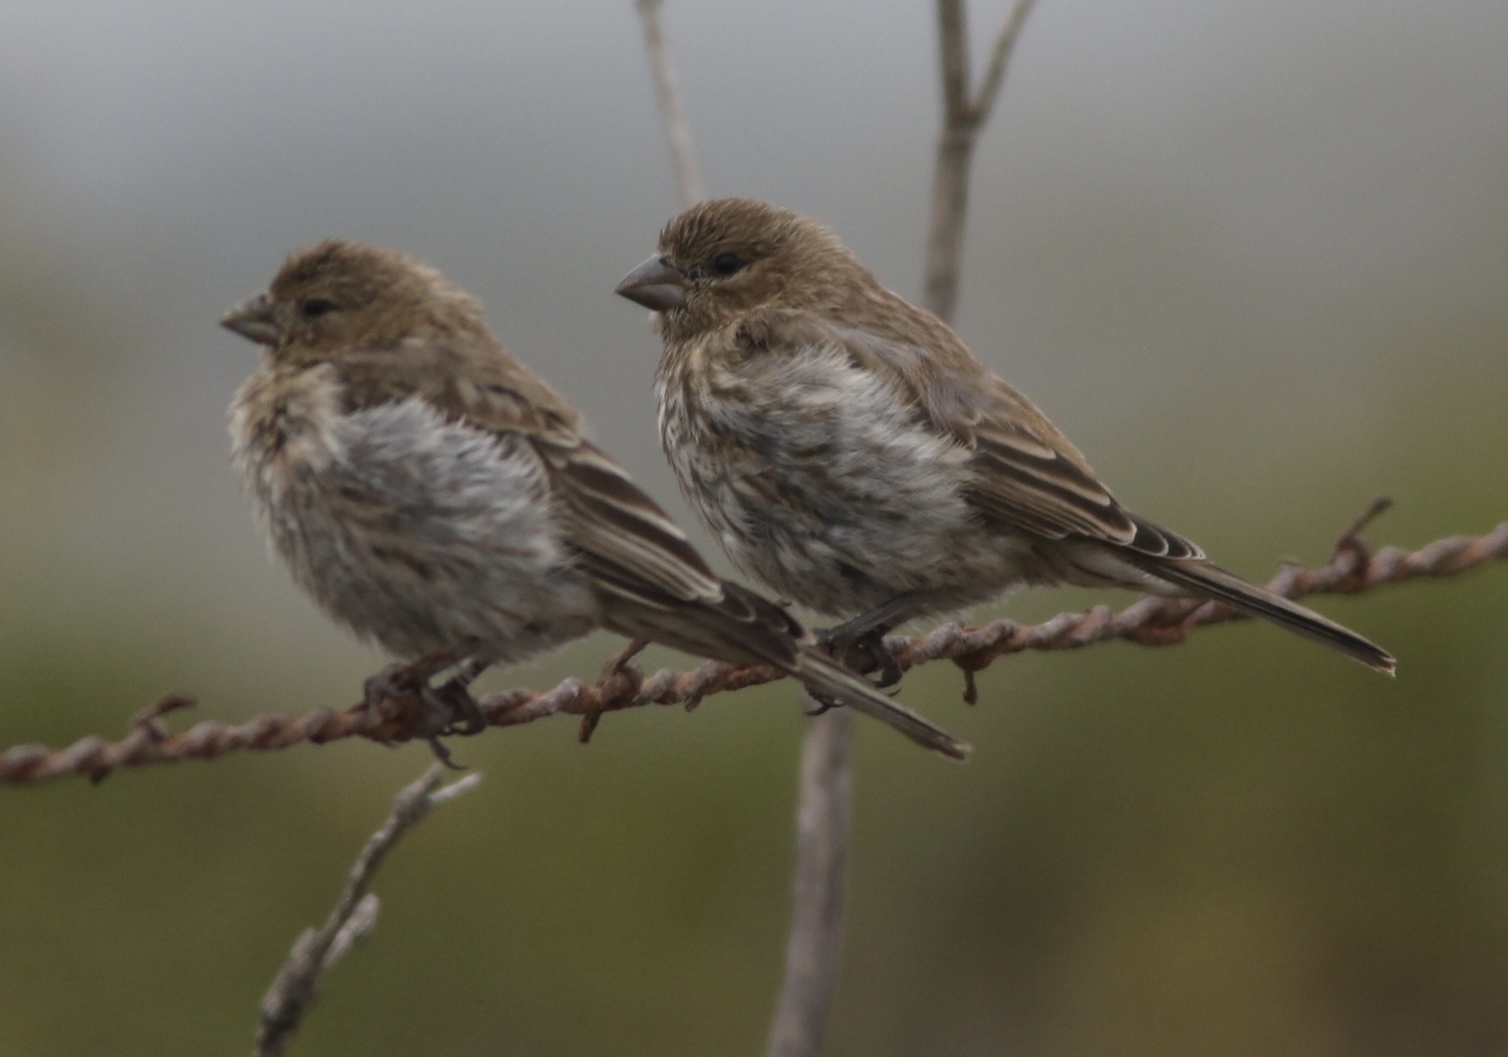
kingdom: Animalia
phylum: Chordata
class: Aves
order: Passeriformes
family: Fringillidae
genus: Haemorhous
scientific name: Haemorhous mexicanus
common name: House finch
